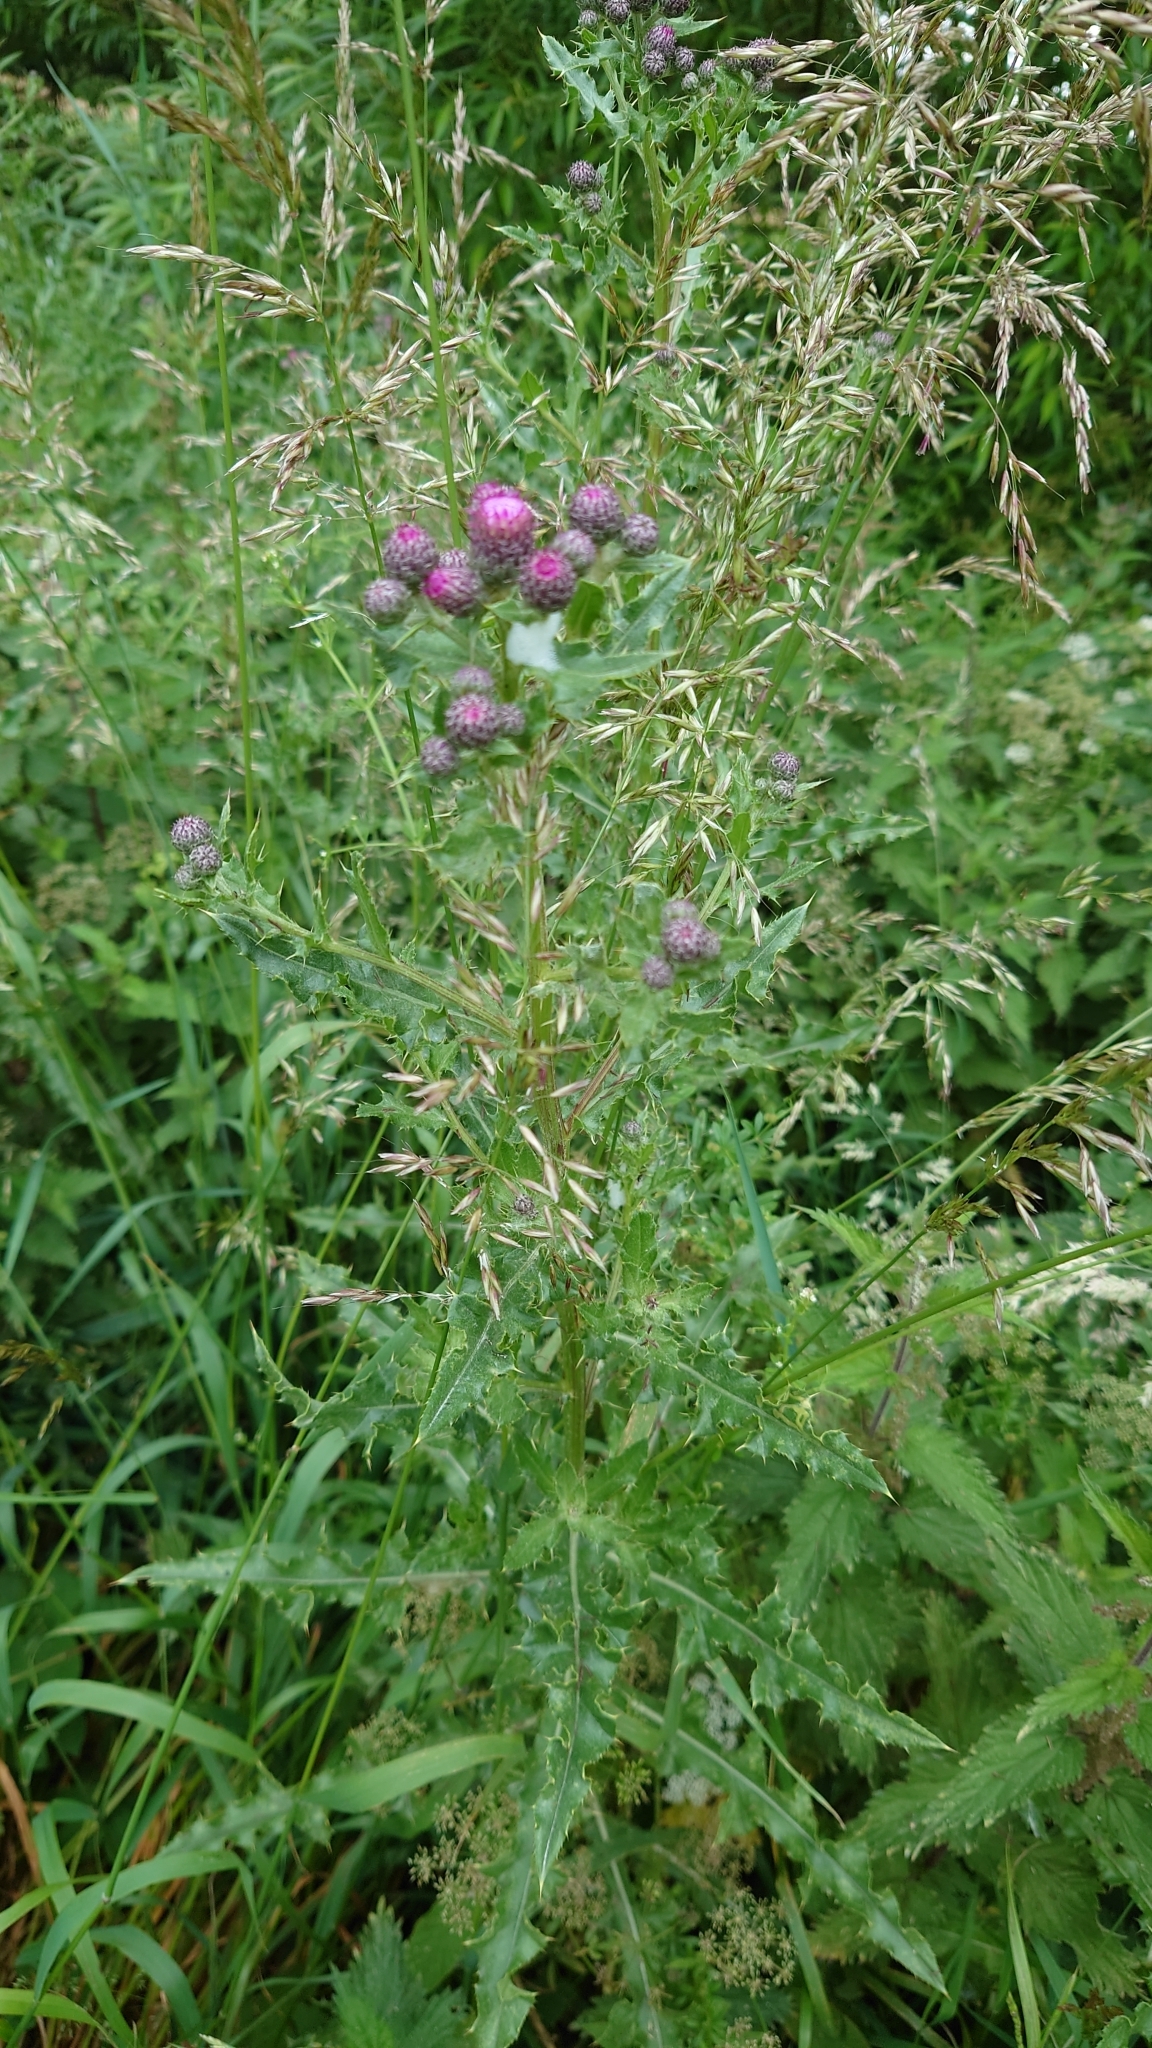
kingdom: Plantae
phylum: Tracheophyta
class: Magnoliopsida
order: Asterales
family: Asteraceae
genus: Cirsium
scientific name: Cirsium arvense
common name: Creeping thistle
